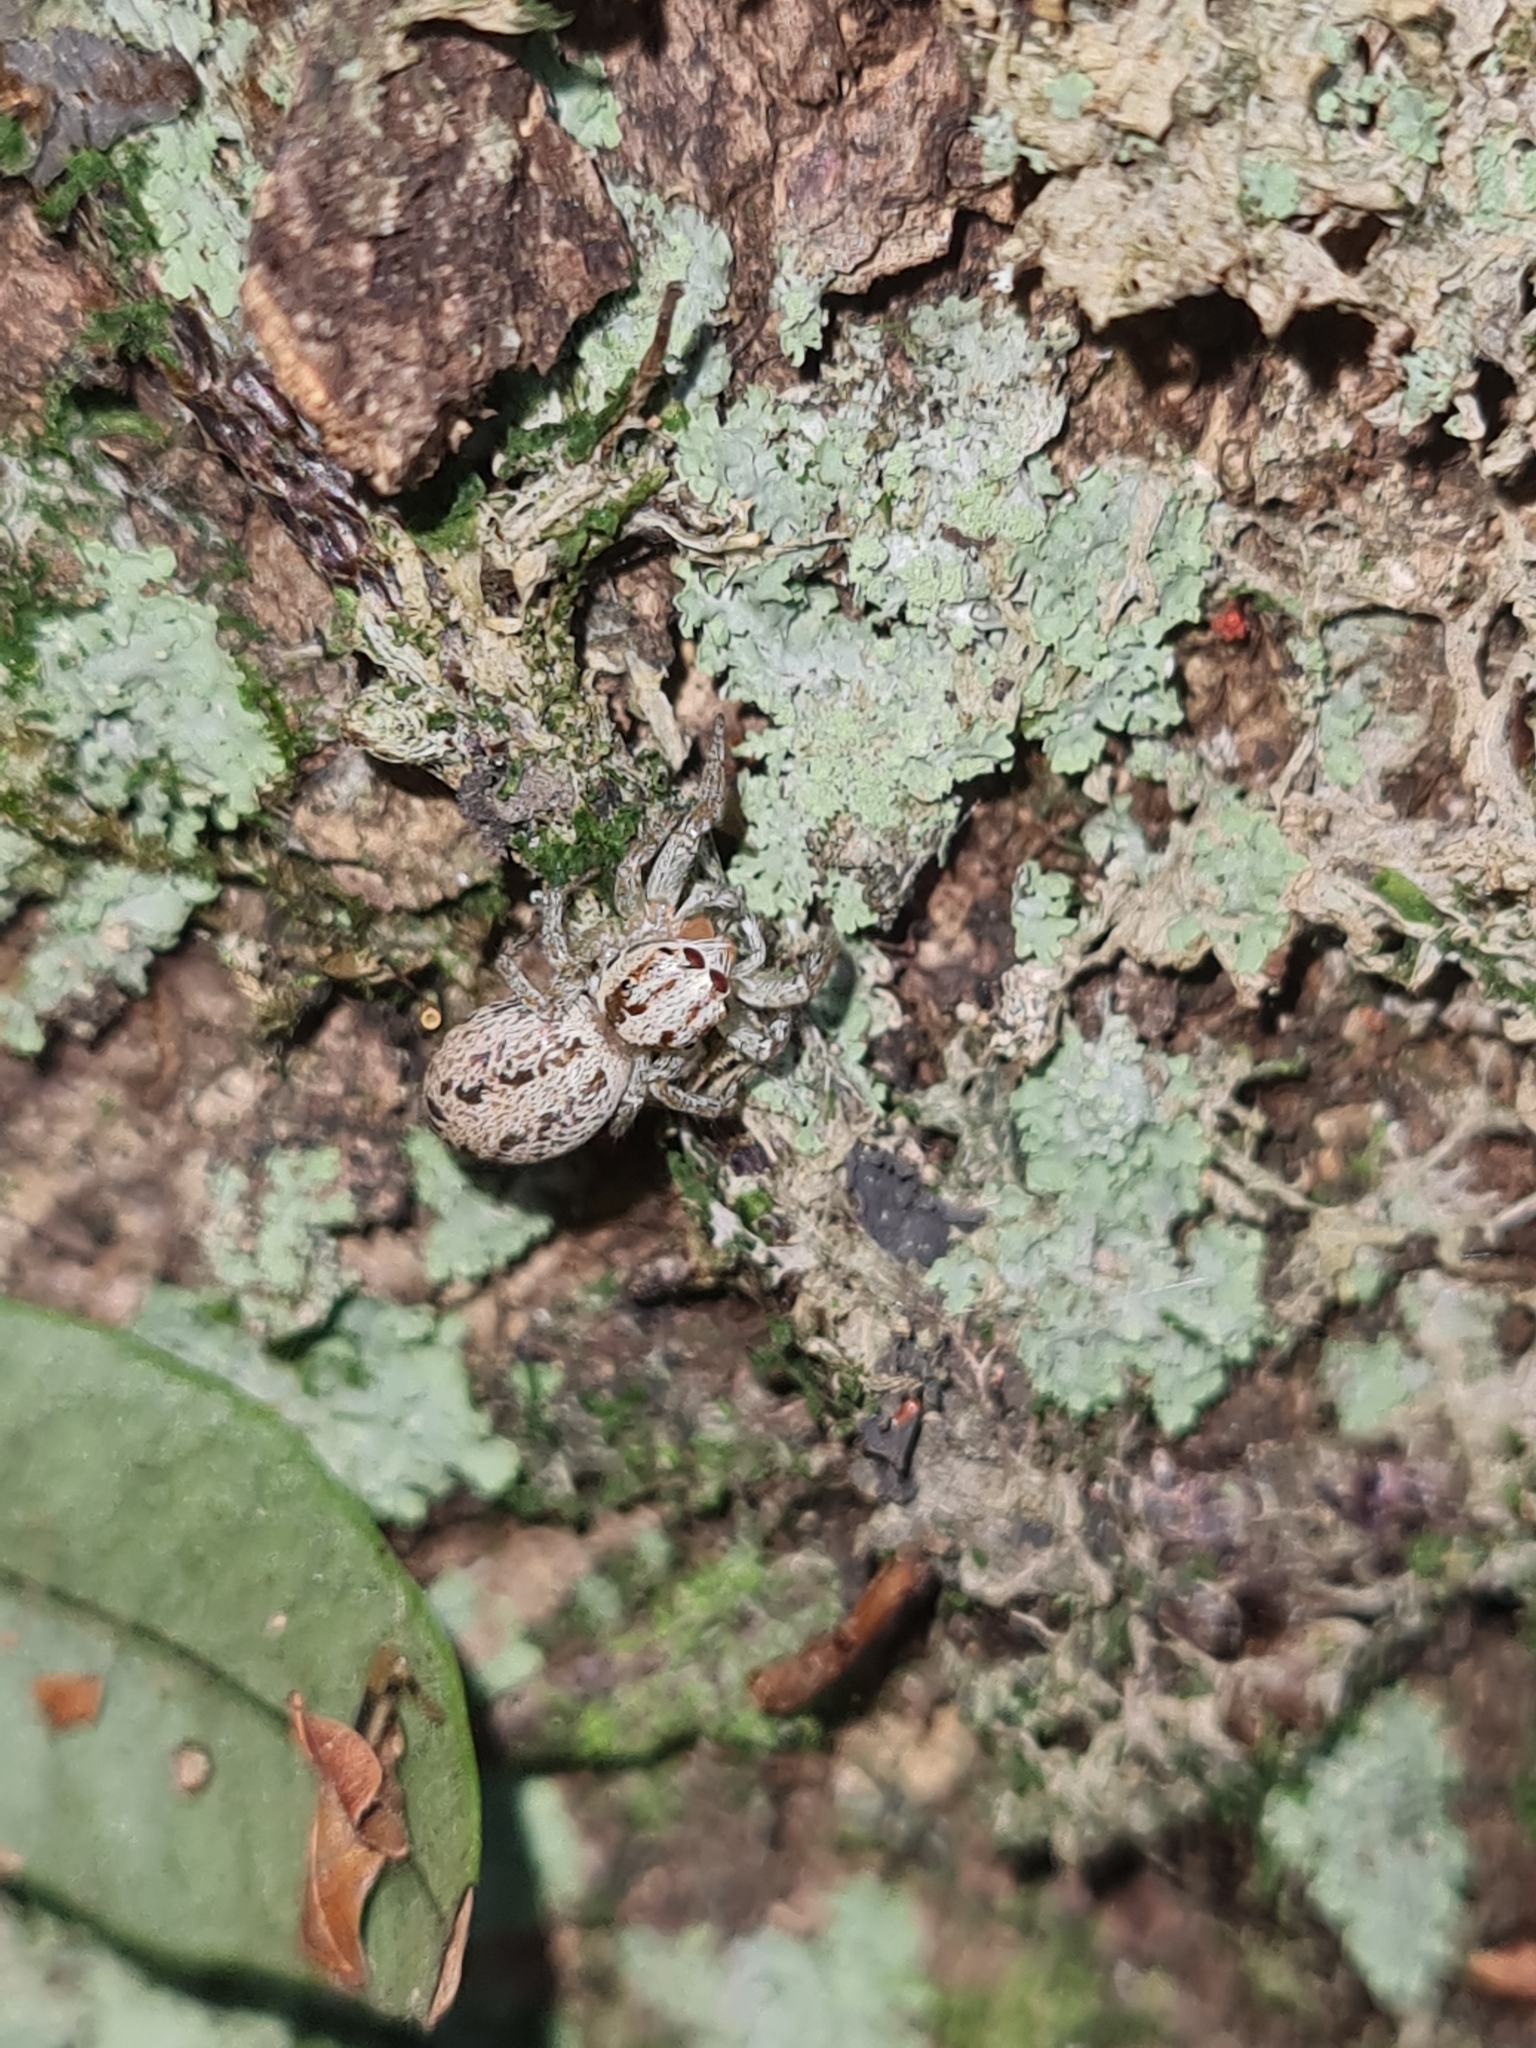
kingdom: Animalia
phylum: Arthropoda
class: Arachnida
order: Araneae
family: Salticidae
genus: Chira
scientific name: Chira lucina
